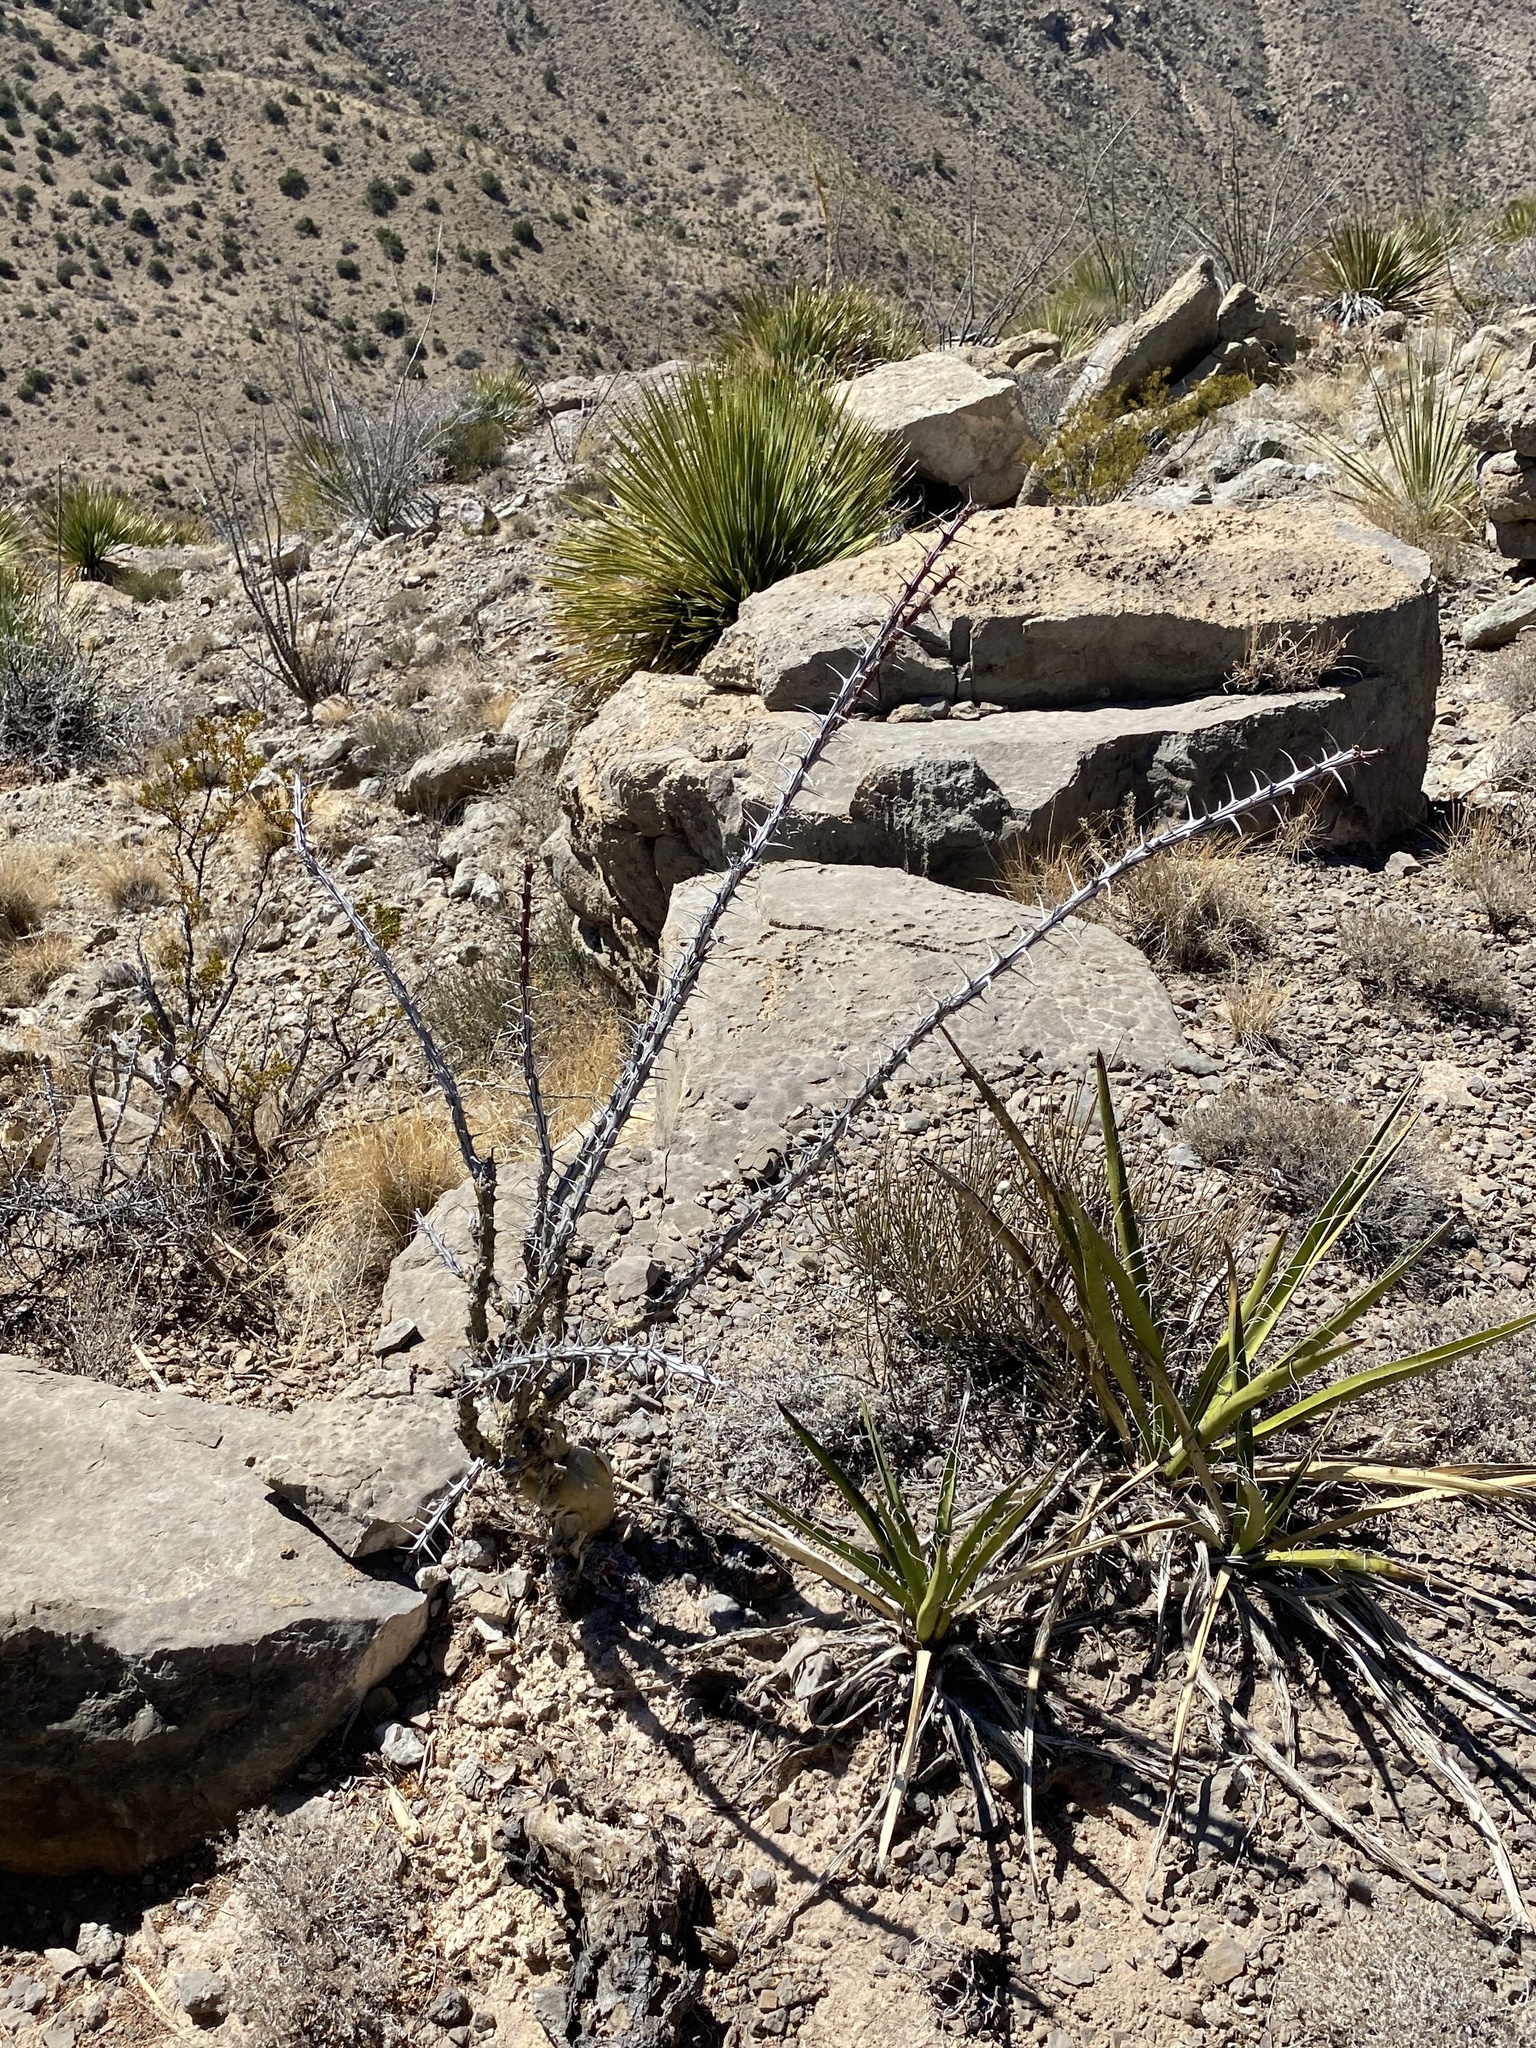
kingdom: Plantae
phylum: Tracheophyta
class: Magnoliopsida
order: Ericales
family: Fouquieriaceae
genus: Fouquieria
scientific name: Fouquieria splendens
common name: Vine-cactus
